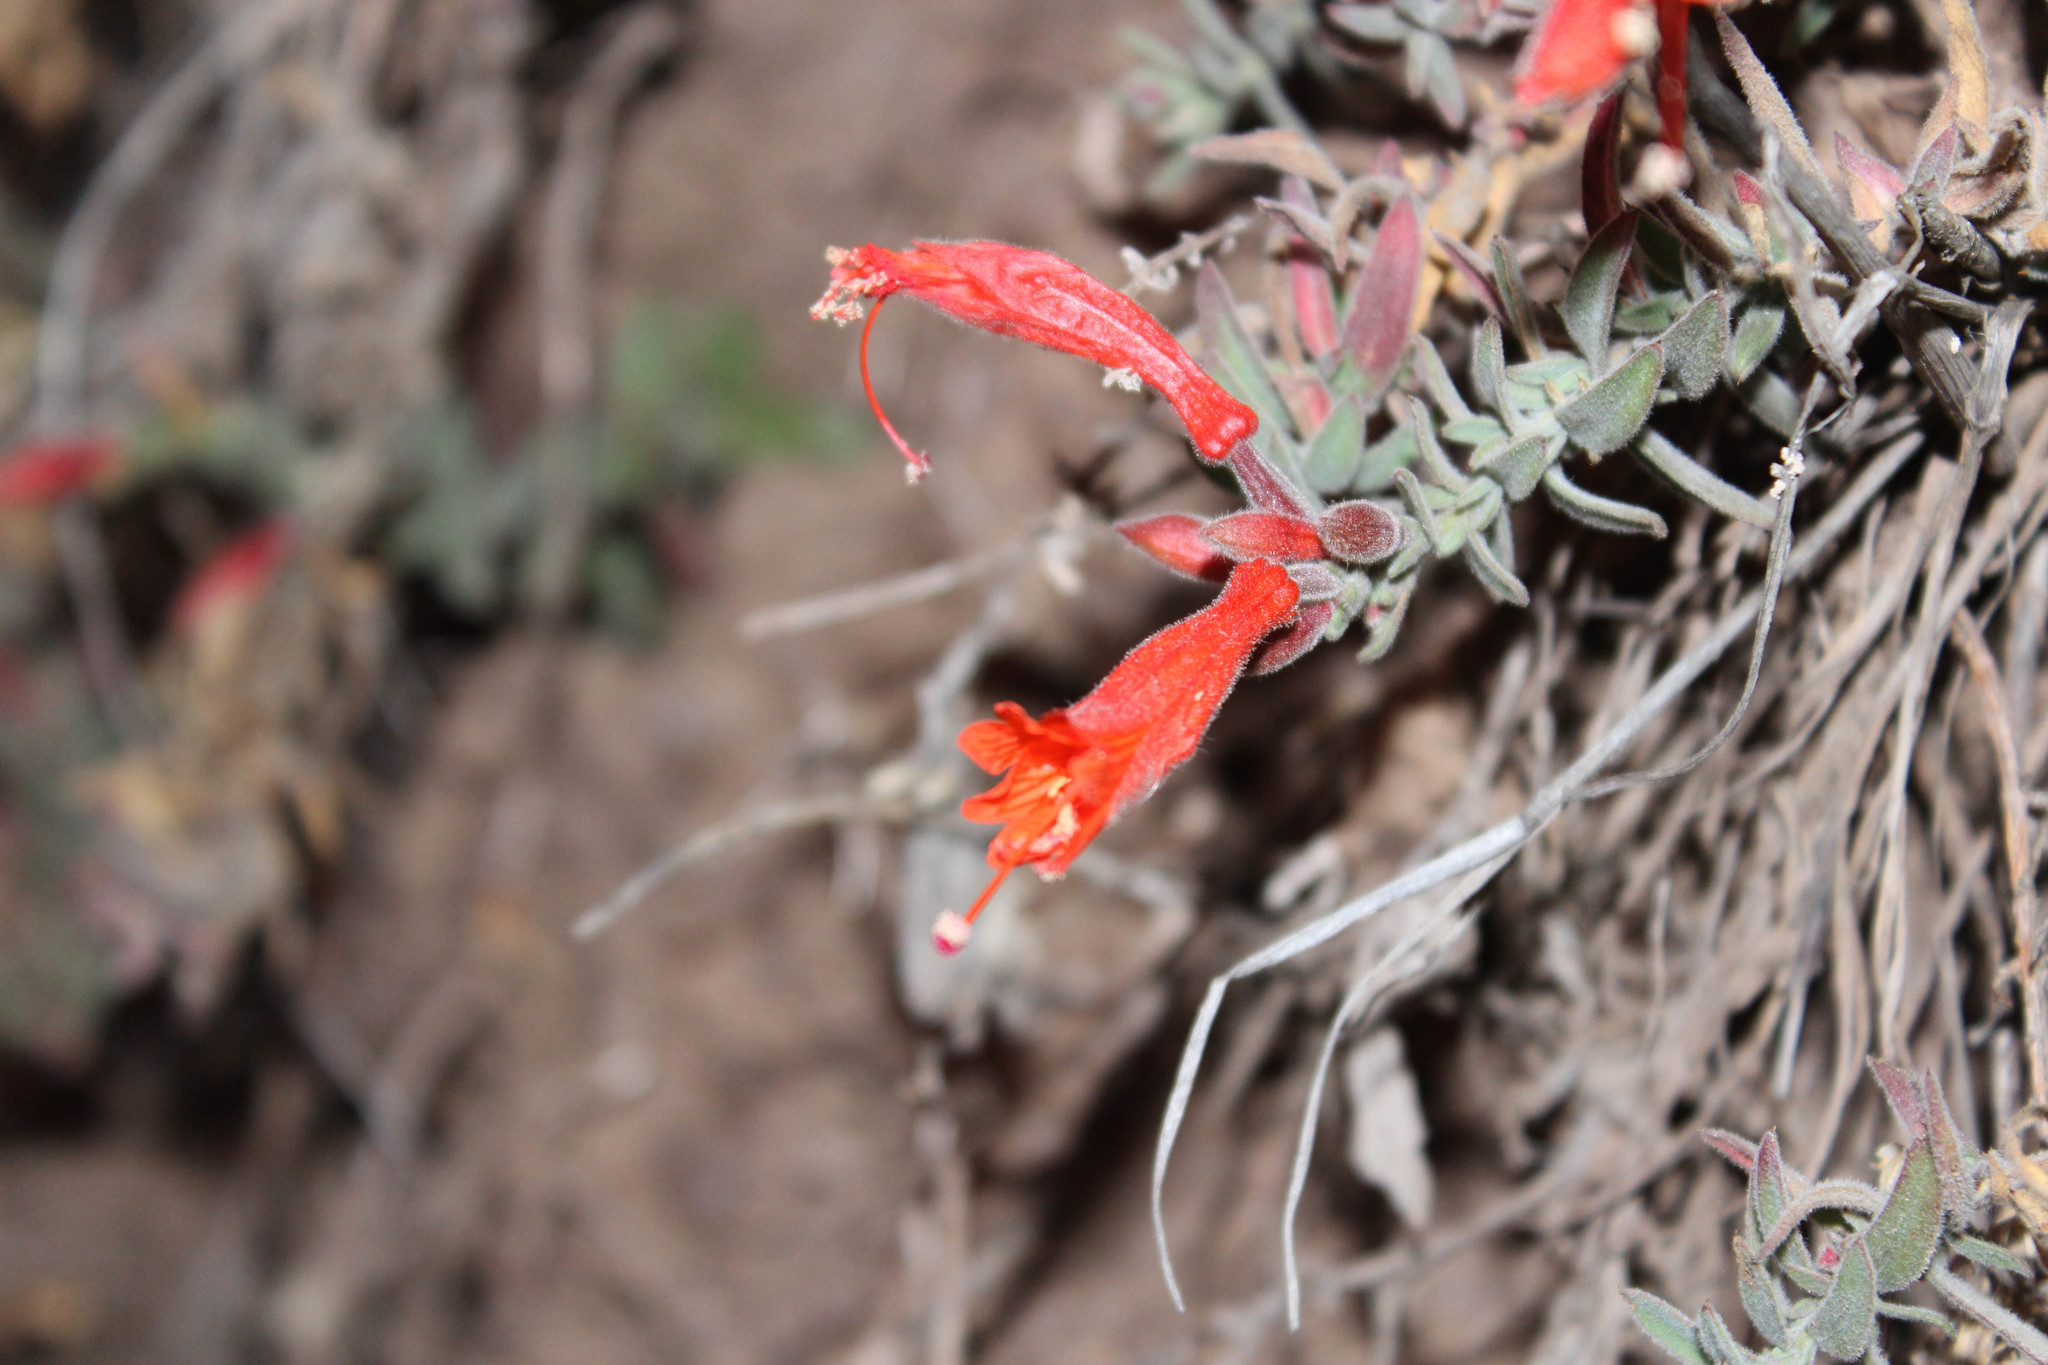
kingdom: Plantae
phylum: Tracheophyta
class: Magnoliopsida
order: Myrtales
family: Onagraceae
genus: Epilobium
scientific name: Epilobium canum
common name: California-fuchsia
